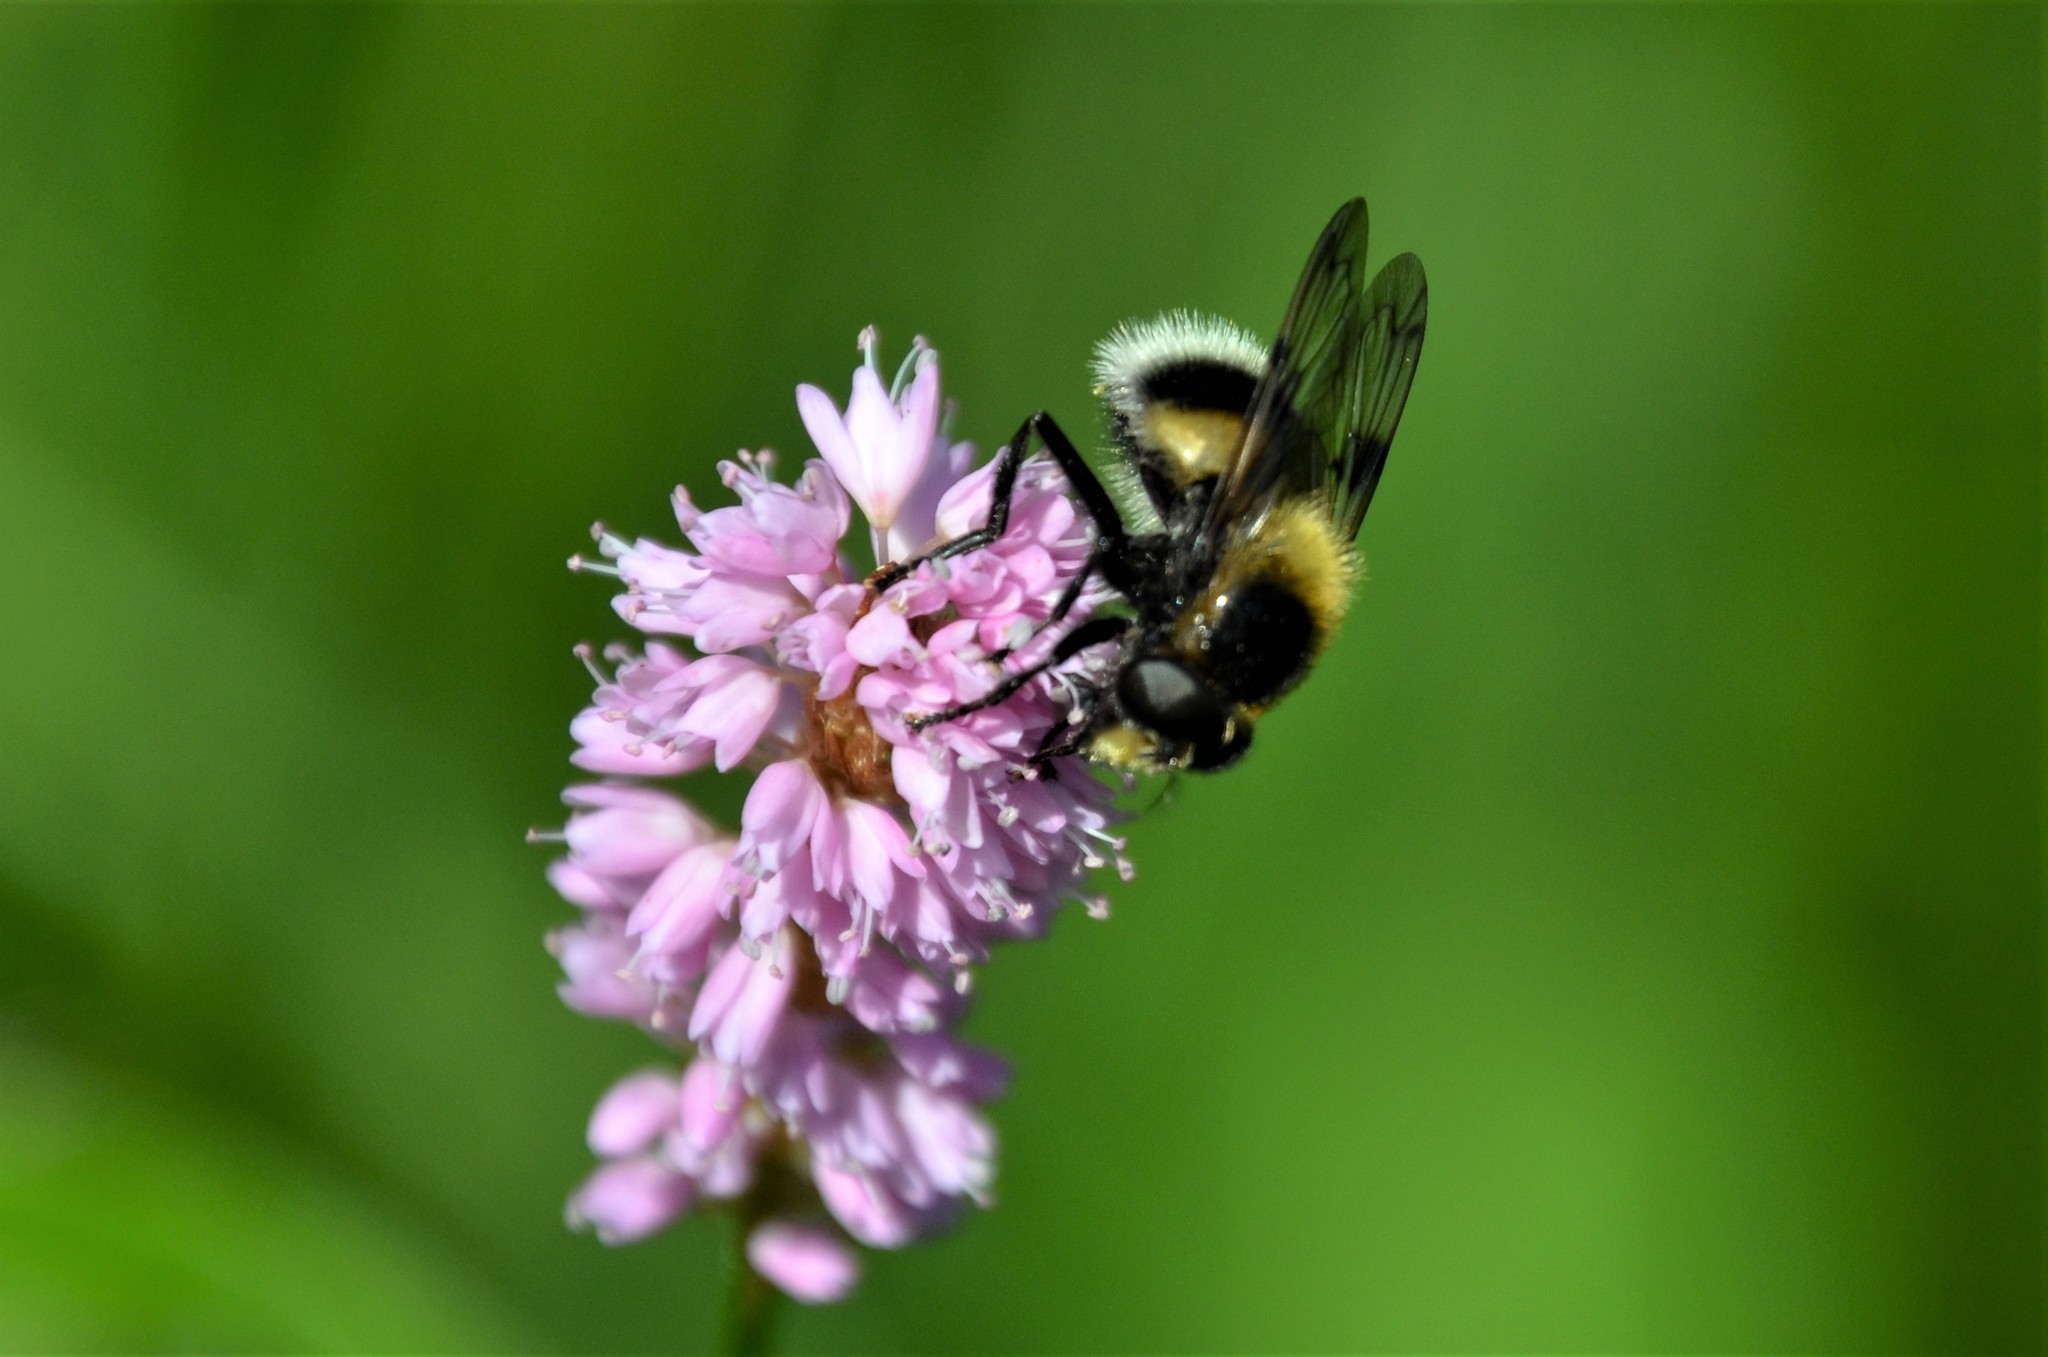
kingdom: Animalia
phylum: Arthropoda
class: Insecta
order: Diptera
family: Syrphidae
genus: Volucella
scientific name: Volucella bombylans
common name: Bumble bee hover fly
